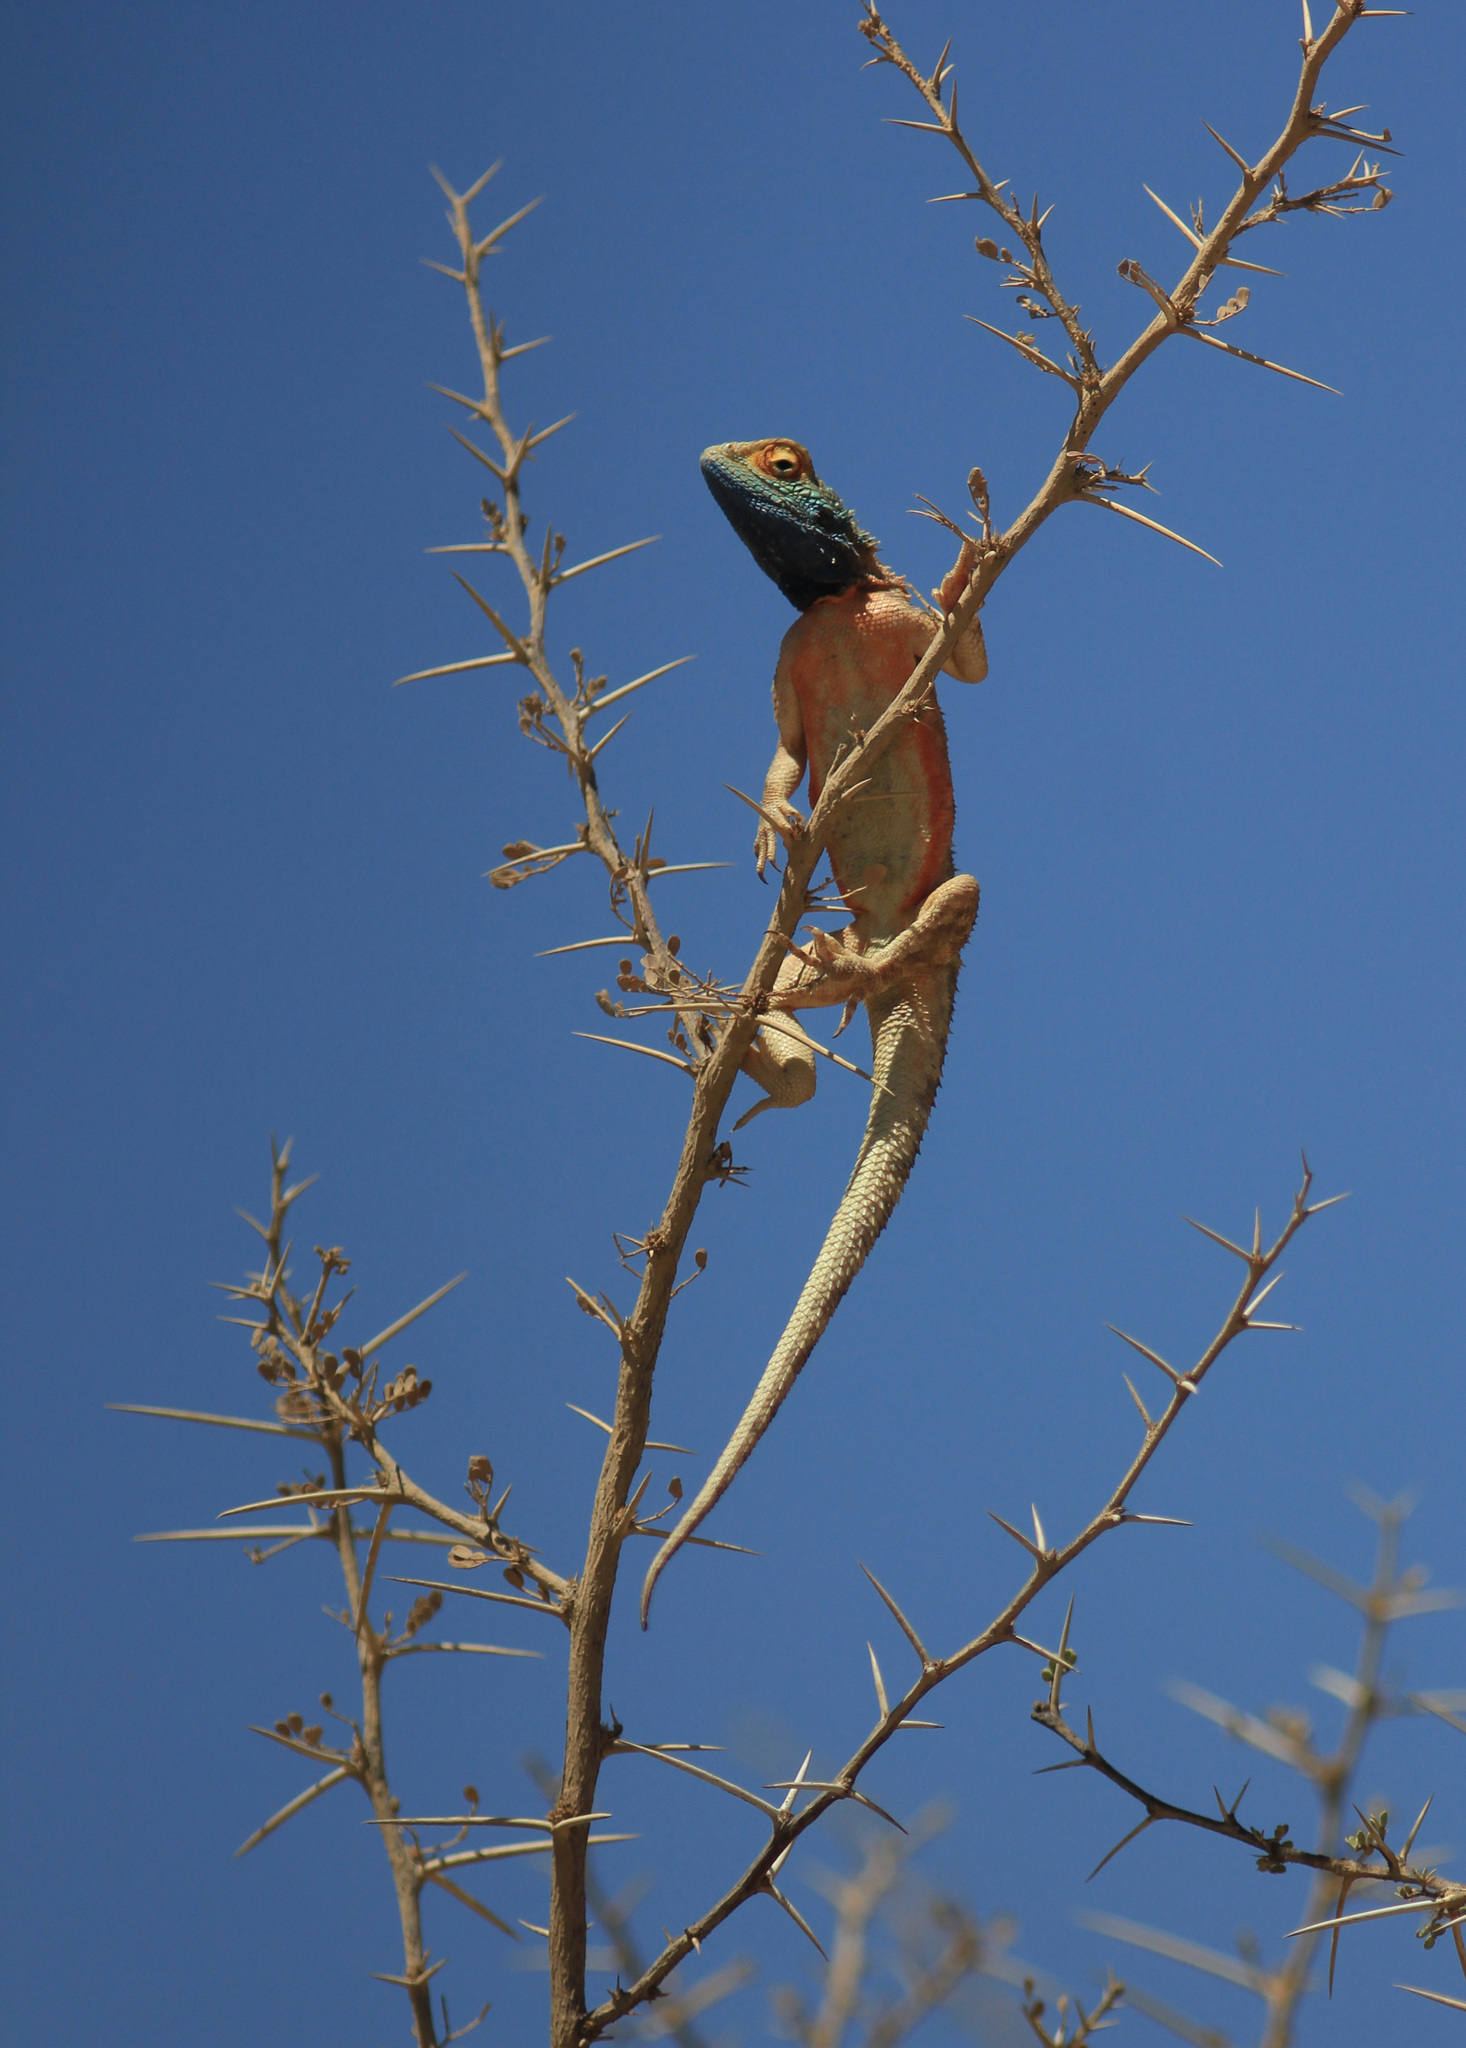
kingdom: Animalia
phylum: Chordata
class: Squamata
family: Agamidae
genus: Agama
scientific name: Agama aculeata
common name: Common ground agama
